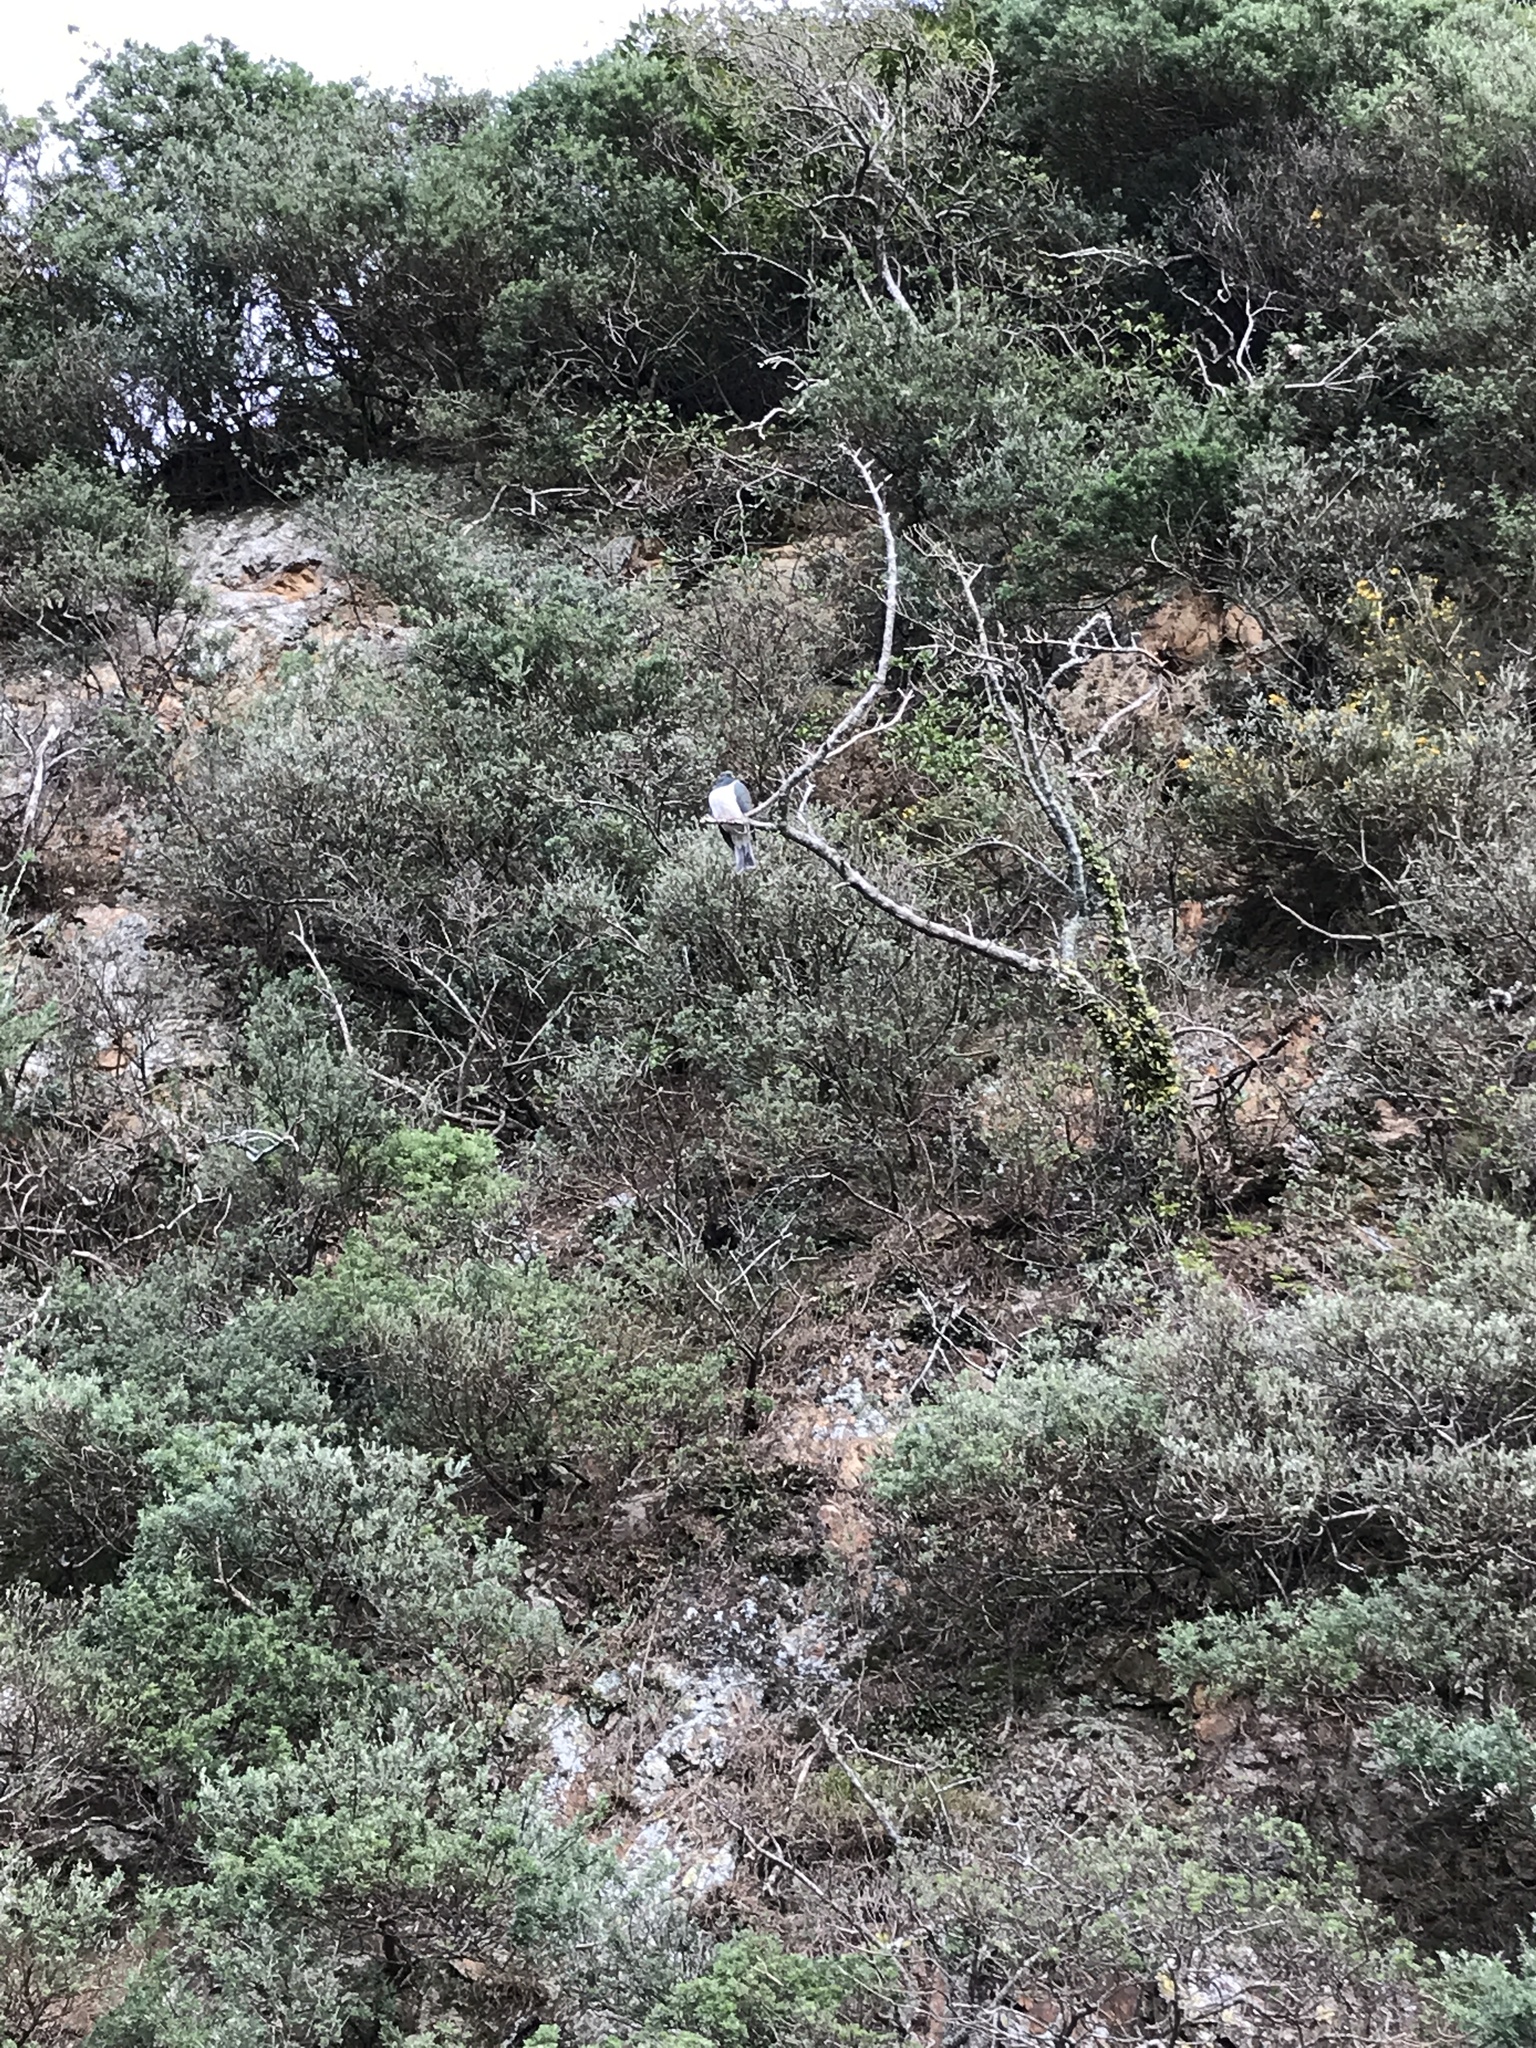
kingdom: Animalia
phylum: Chordata
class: Aves
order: Columbiformes
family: Columbidae
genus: Hemiphaga
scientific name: Hemiphaga novaeseelandiae
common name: New zealand pigeon
